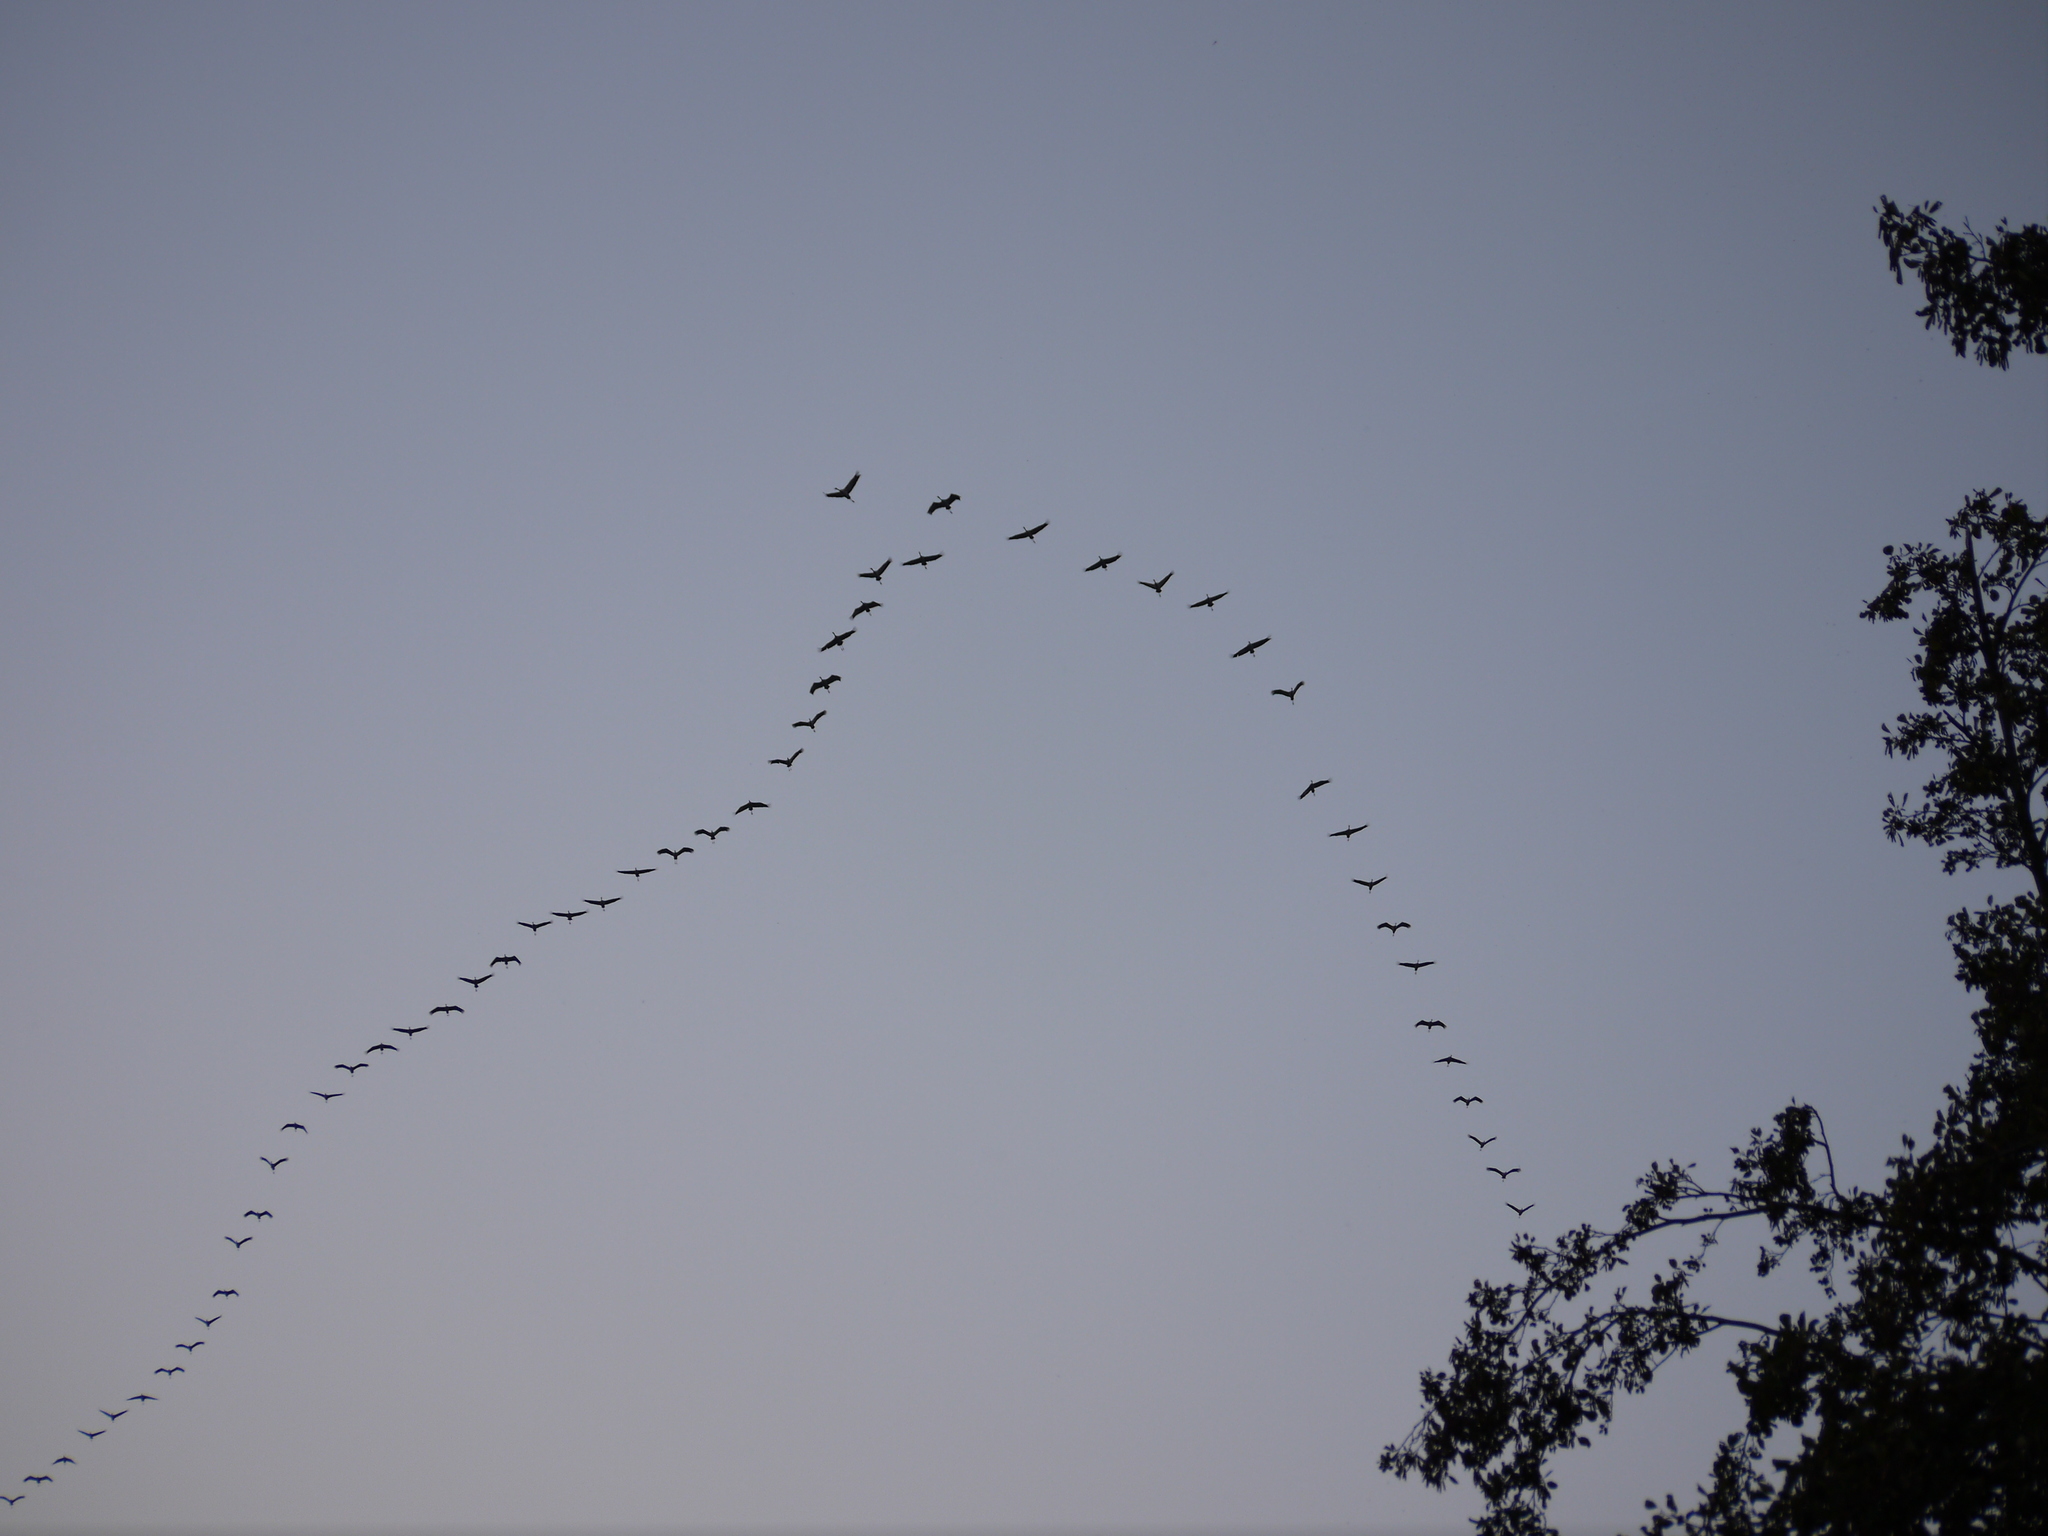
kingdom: Animalia
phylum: Chordata
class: Aves
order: Gruiformes
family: Gruidae
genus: Grus
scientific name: Grus grus
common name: Common crane
